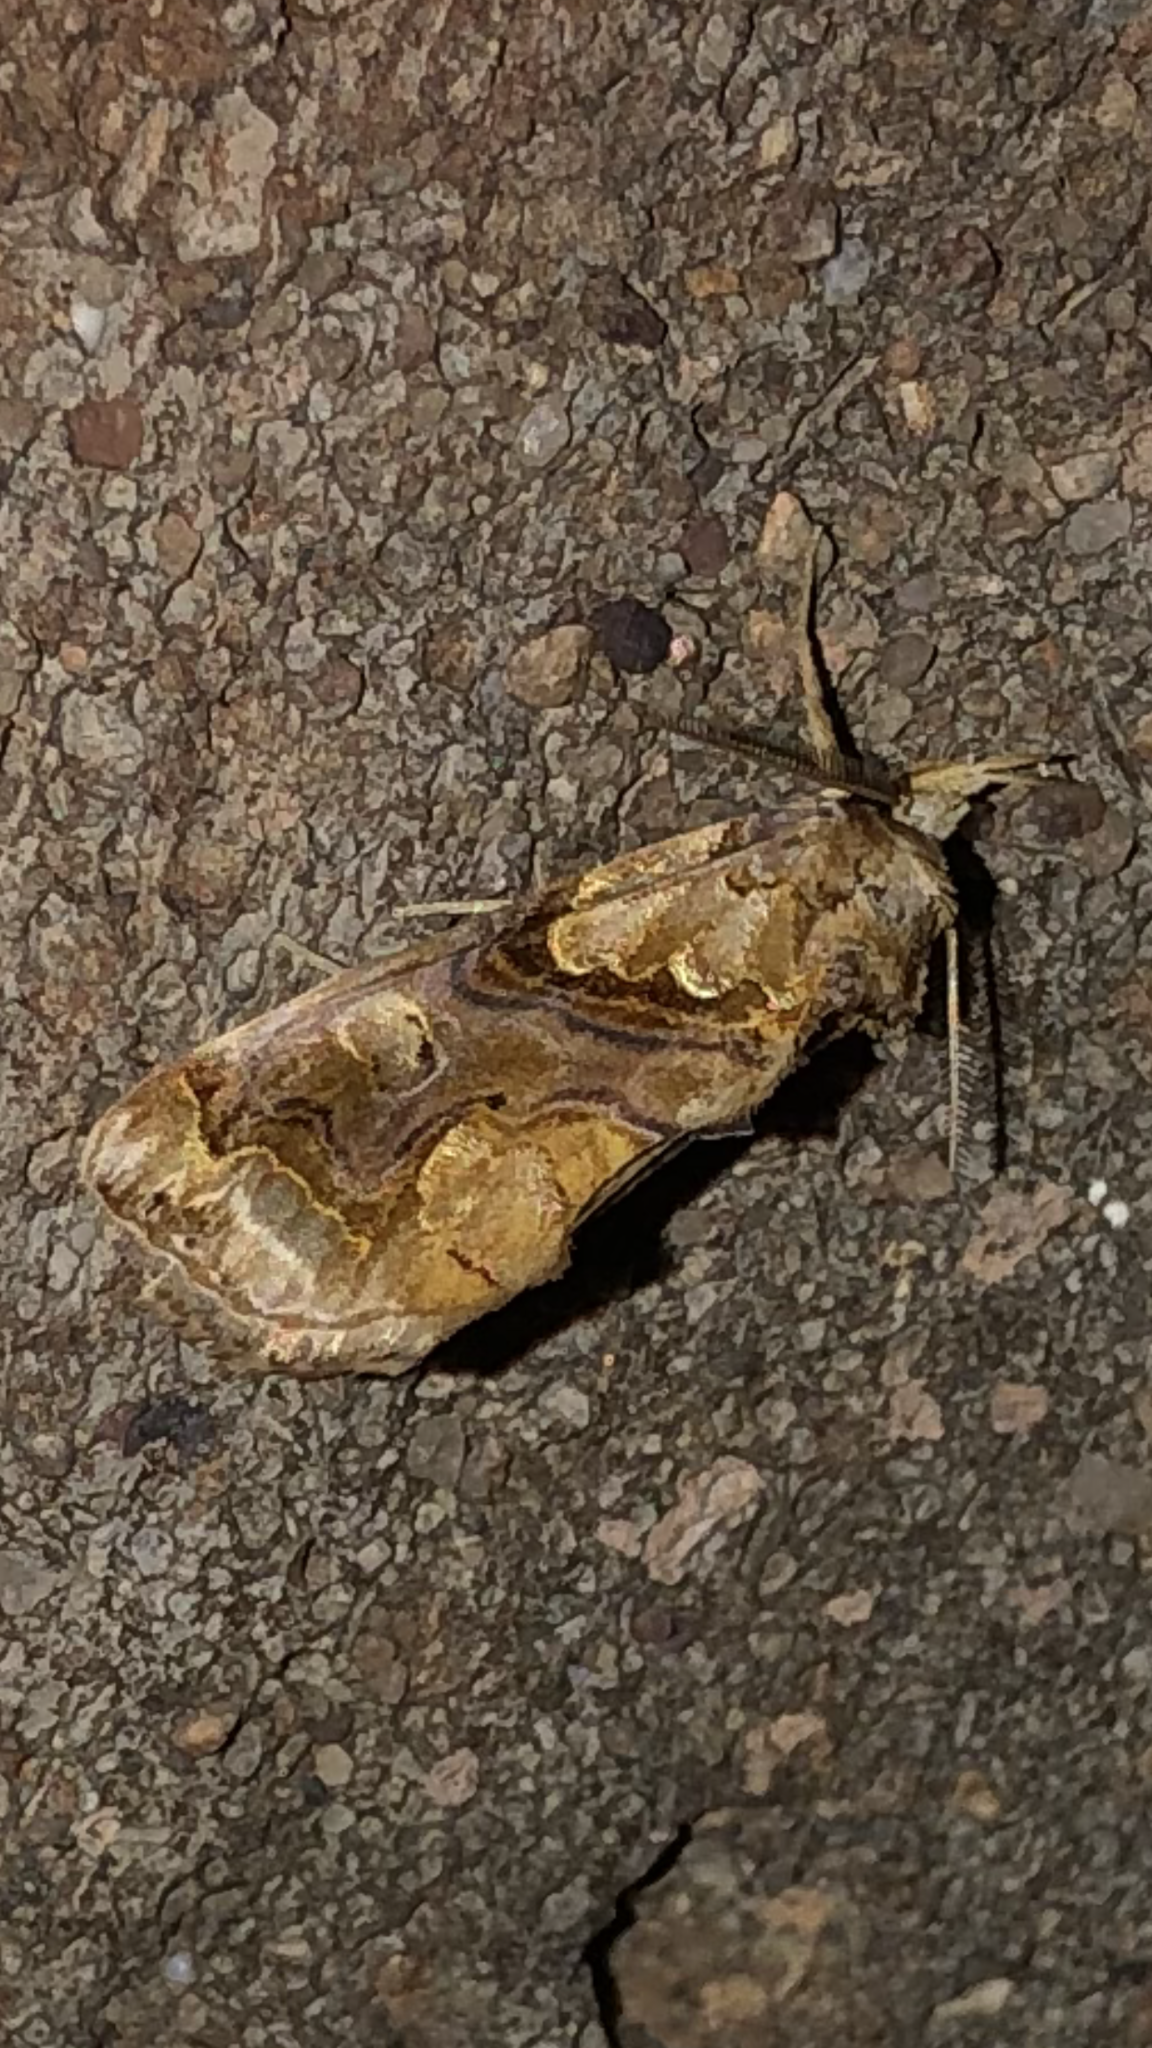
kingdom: Animalia
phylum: Arthropoda
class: Insecta
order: Lepidoptera
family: Erebidae
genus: Plusiodonta
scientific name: Plusiodonta compressipalpis
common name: Moonseed moth
